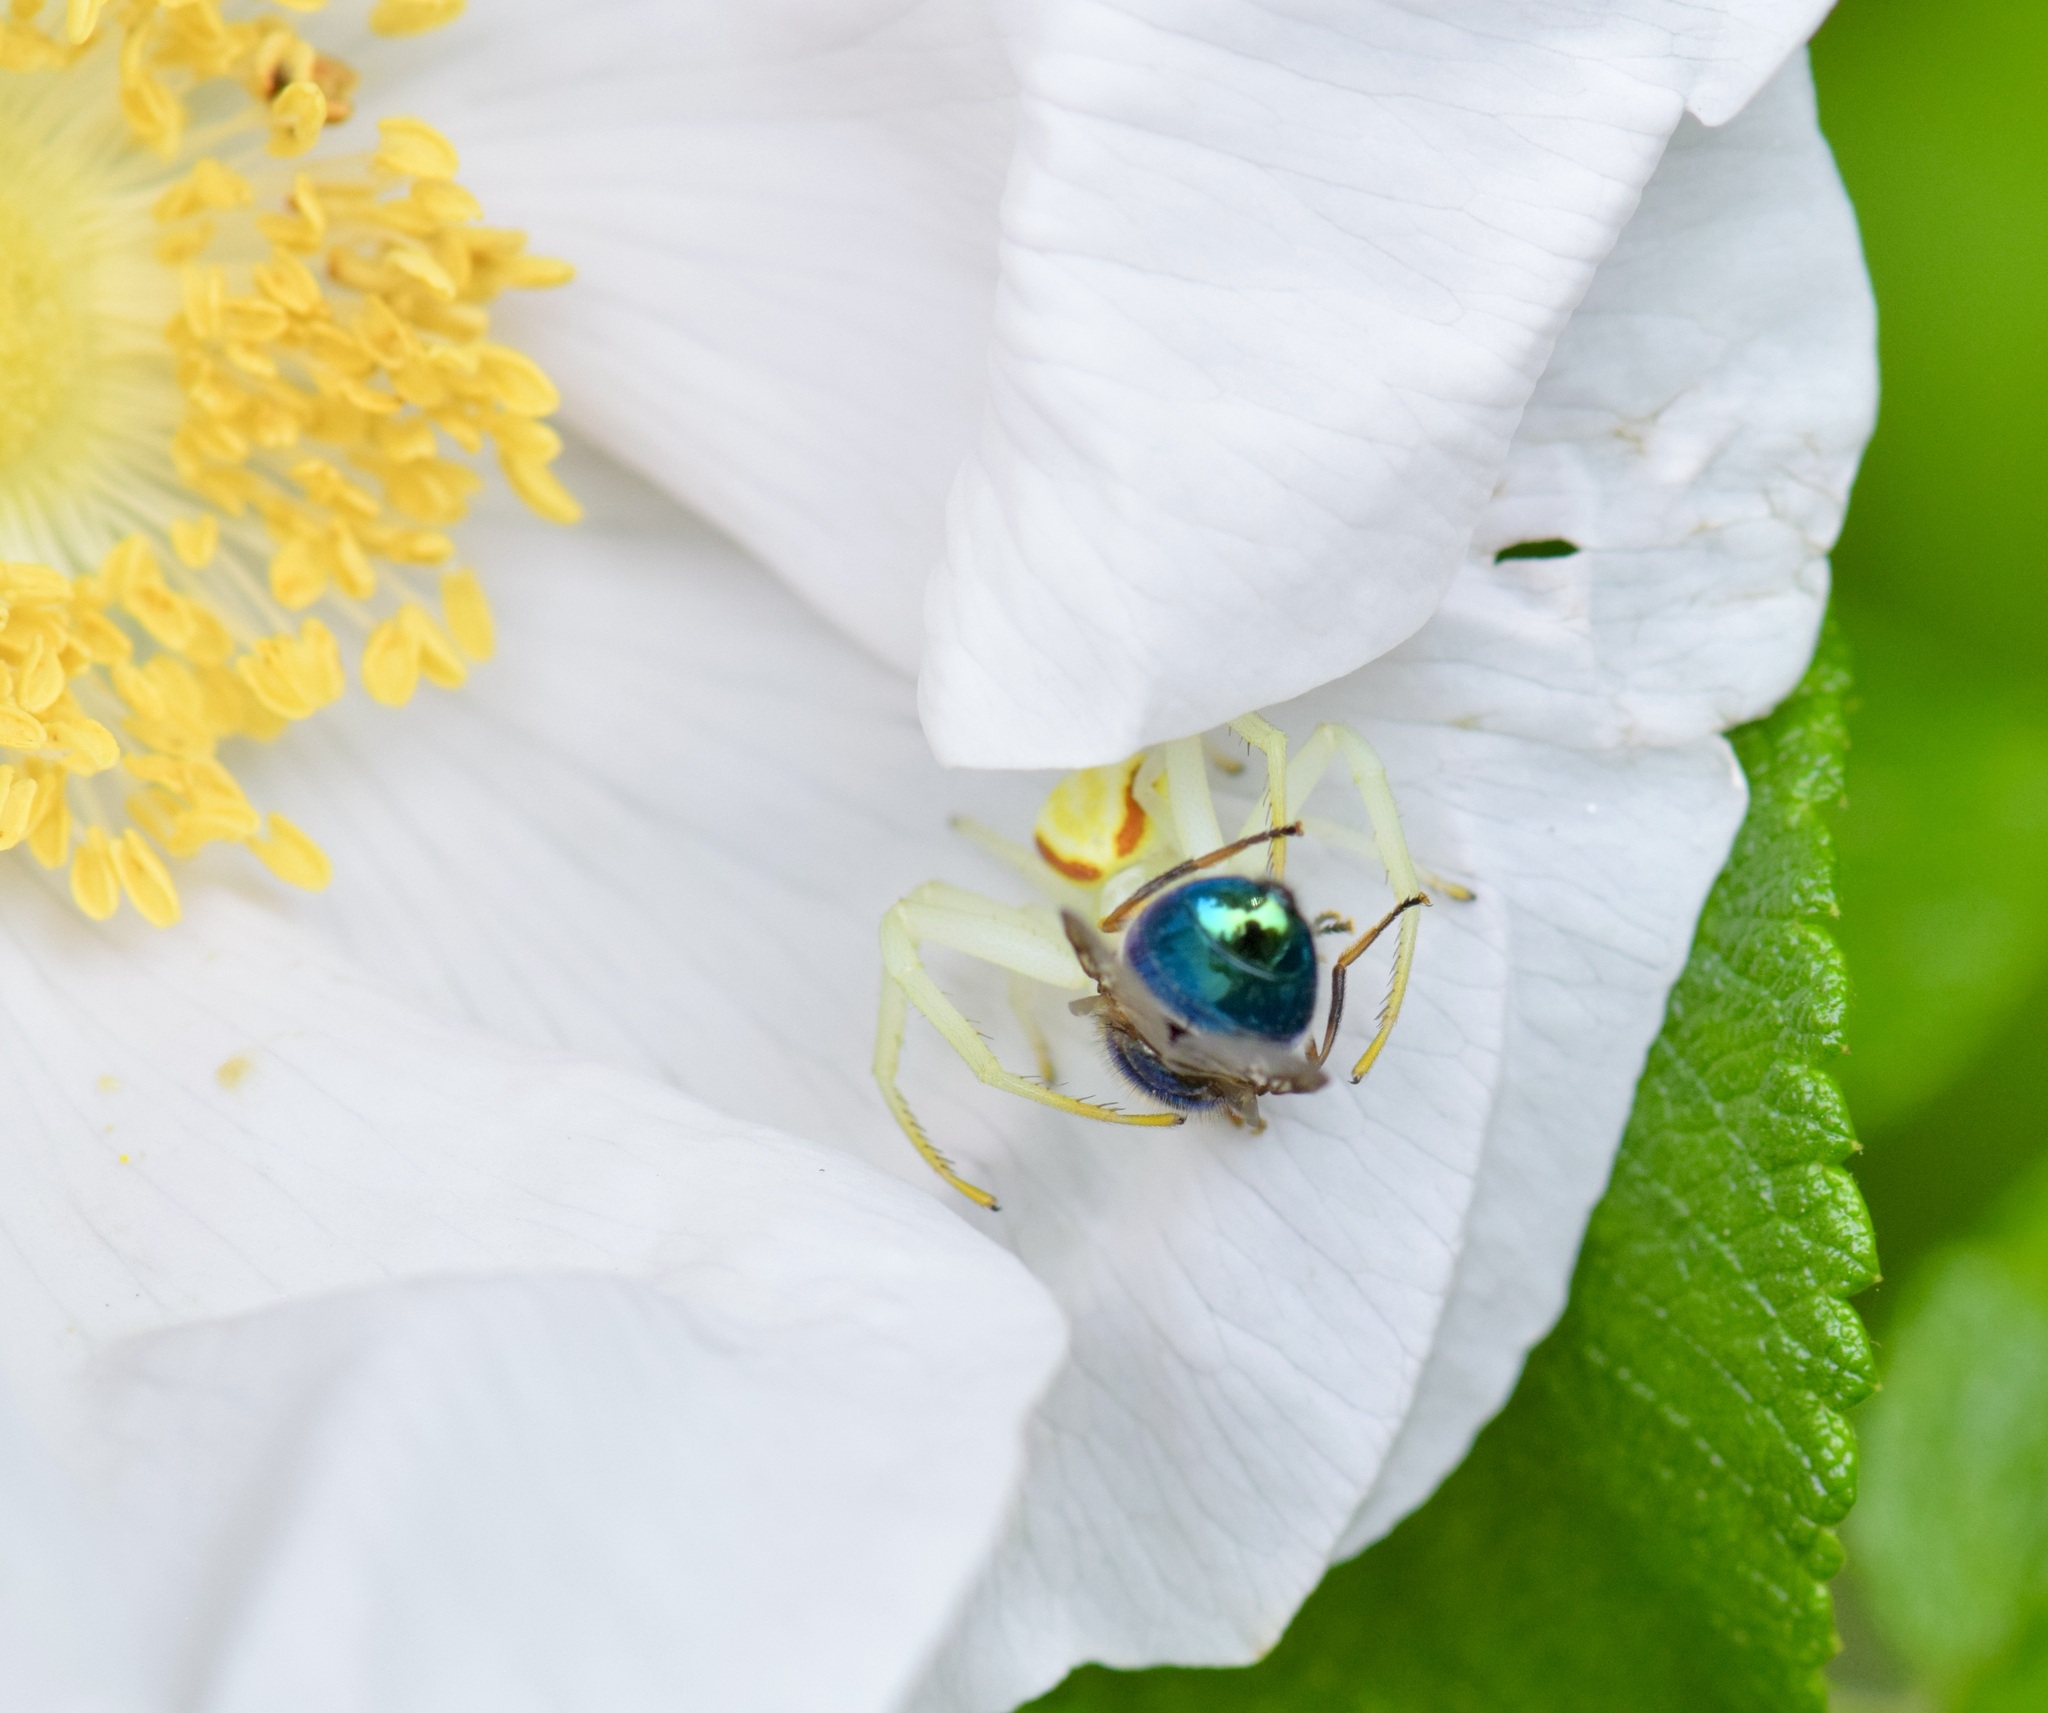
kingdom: Animalia
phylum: Arthropoda
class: Arachnida
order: Araneae
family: Thomisidae
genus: Misumena
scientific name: Misumena vatia
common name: Goldenrod crab spider
